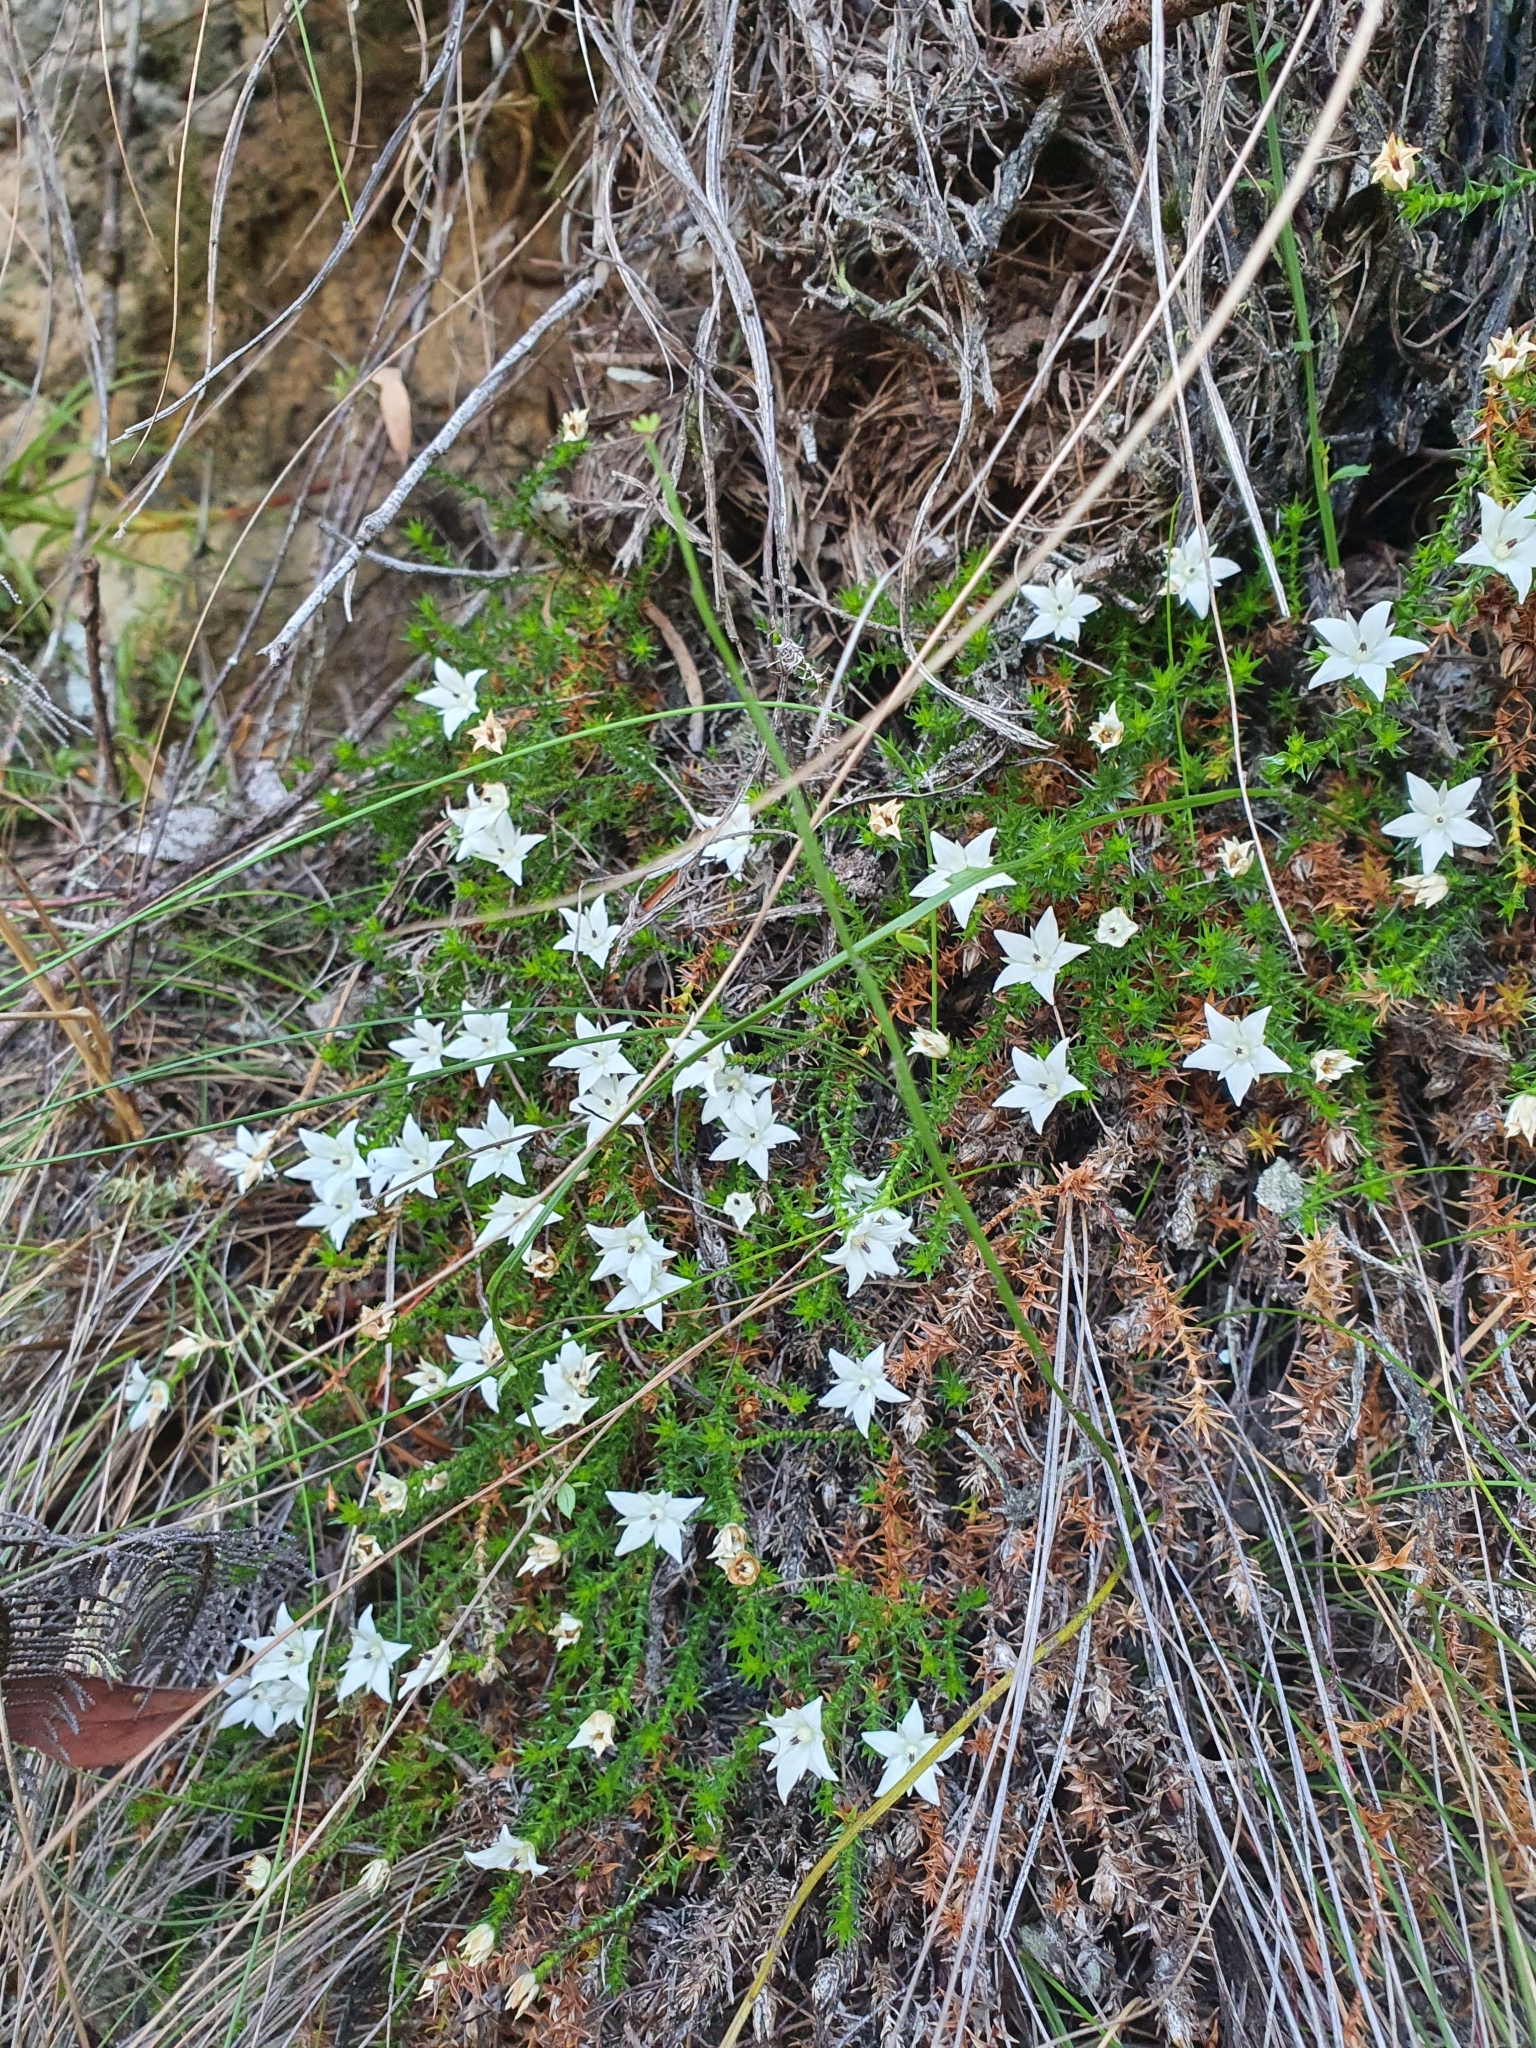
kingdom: Plantae
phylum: Tracheophyta
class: Magnoliopsida
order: Ericales
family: Ericaceae
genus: Sprengelia
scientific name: Sprengelia monticola
